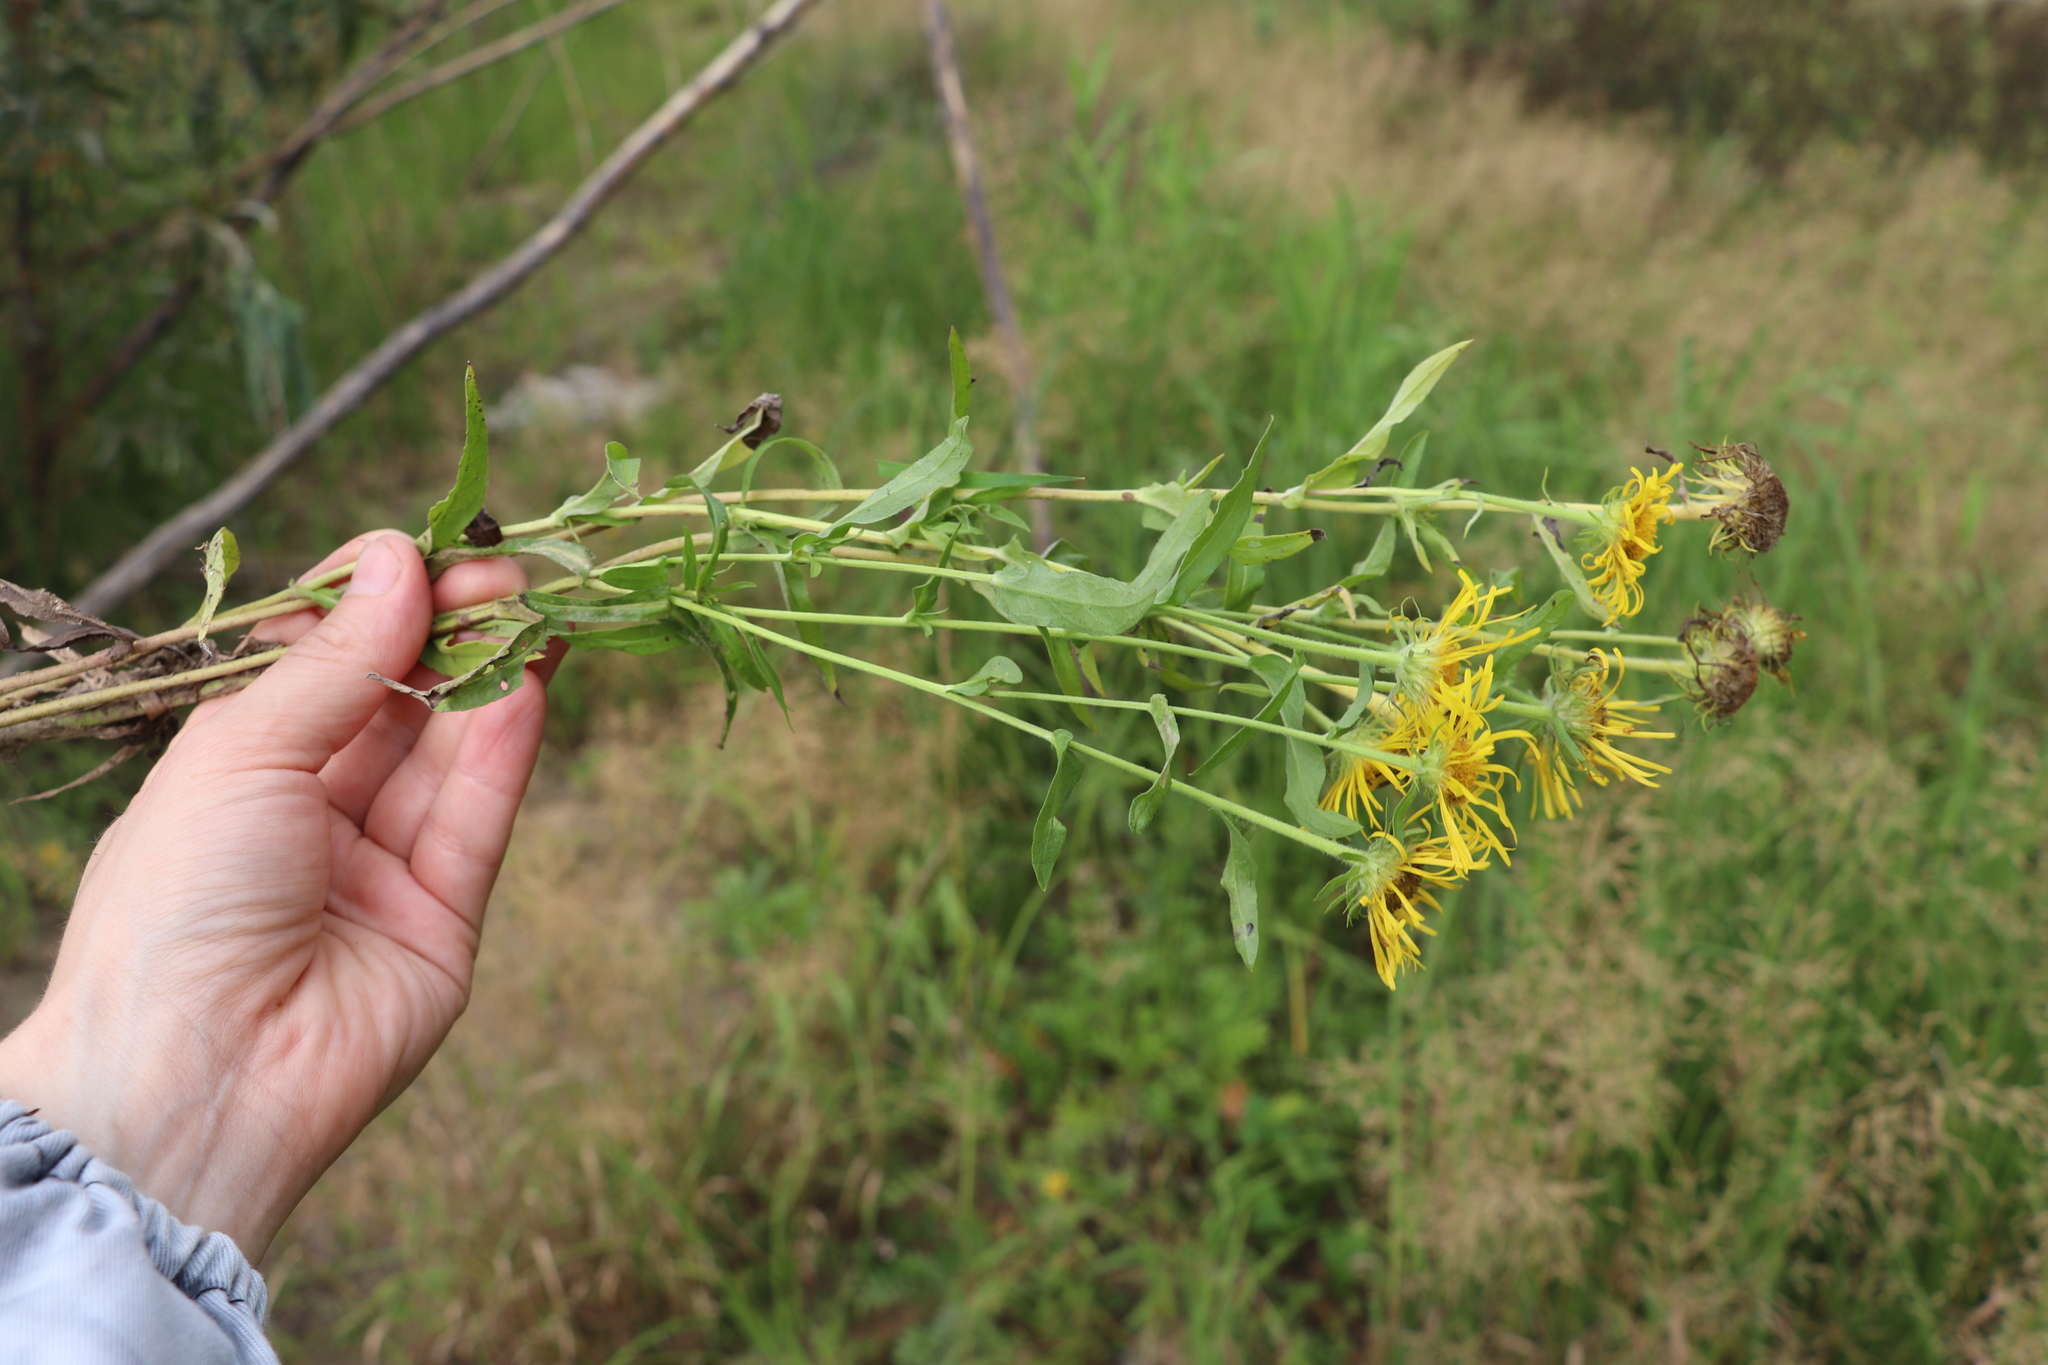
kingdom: Plantae
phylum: Tracheophyta
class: Magnoliopsida
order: Asterales
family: Asteraceae
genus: Pentanema
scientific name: Pentanema britannicum
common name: British elecampane
